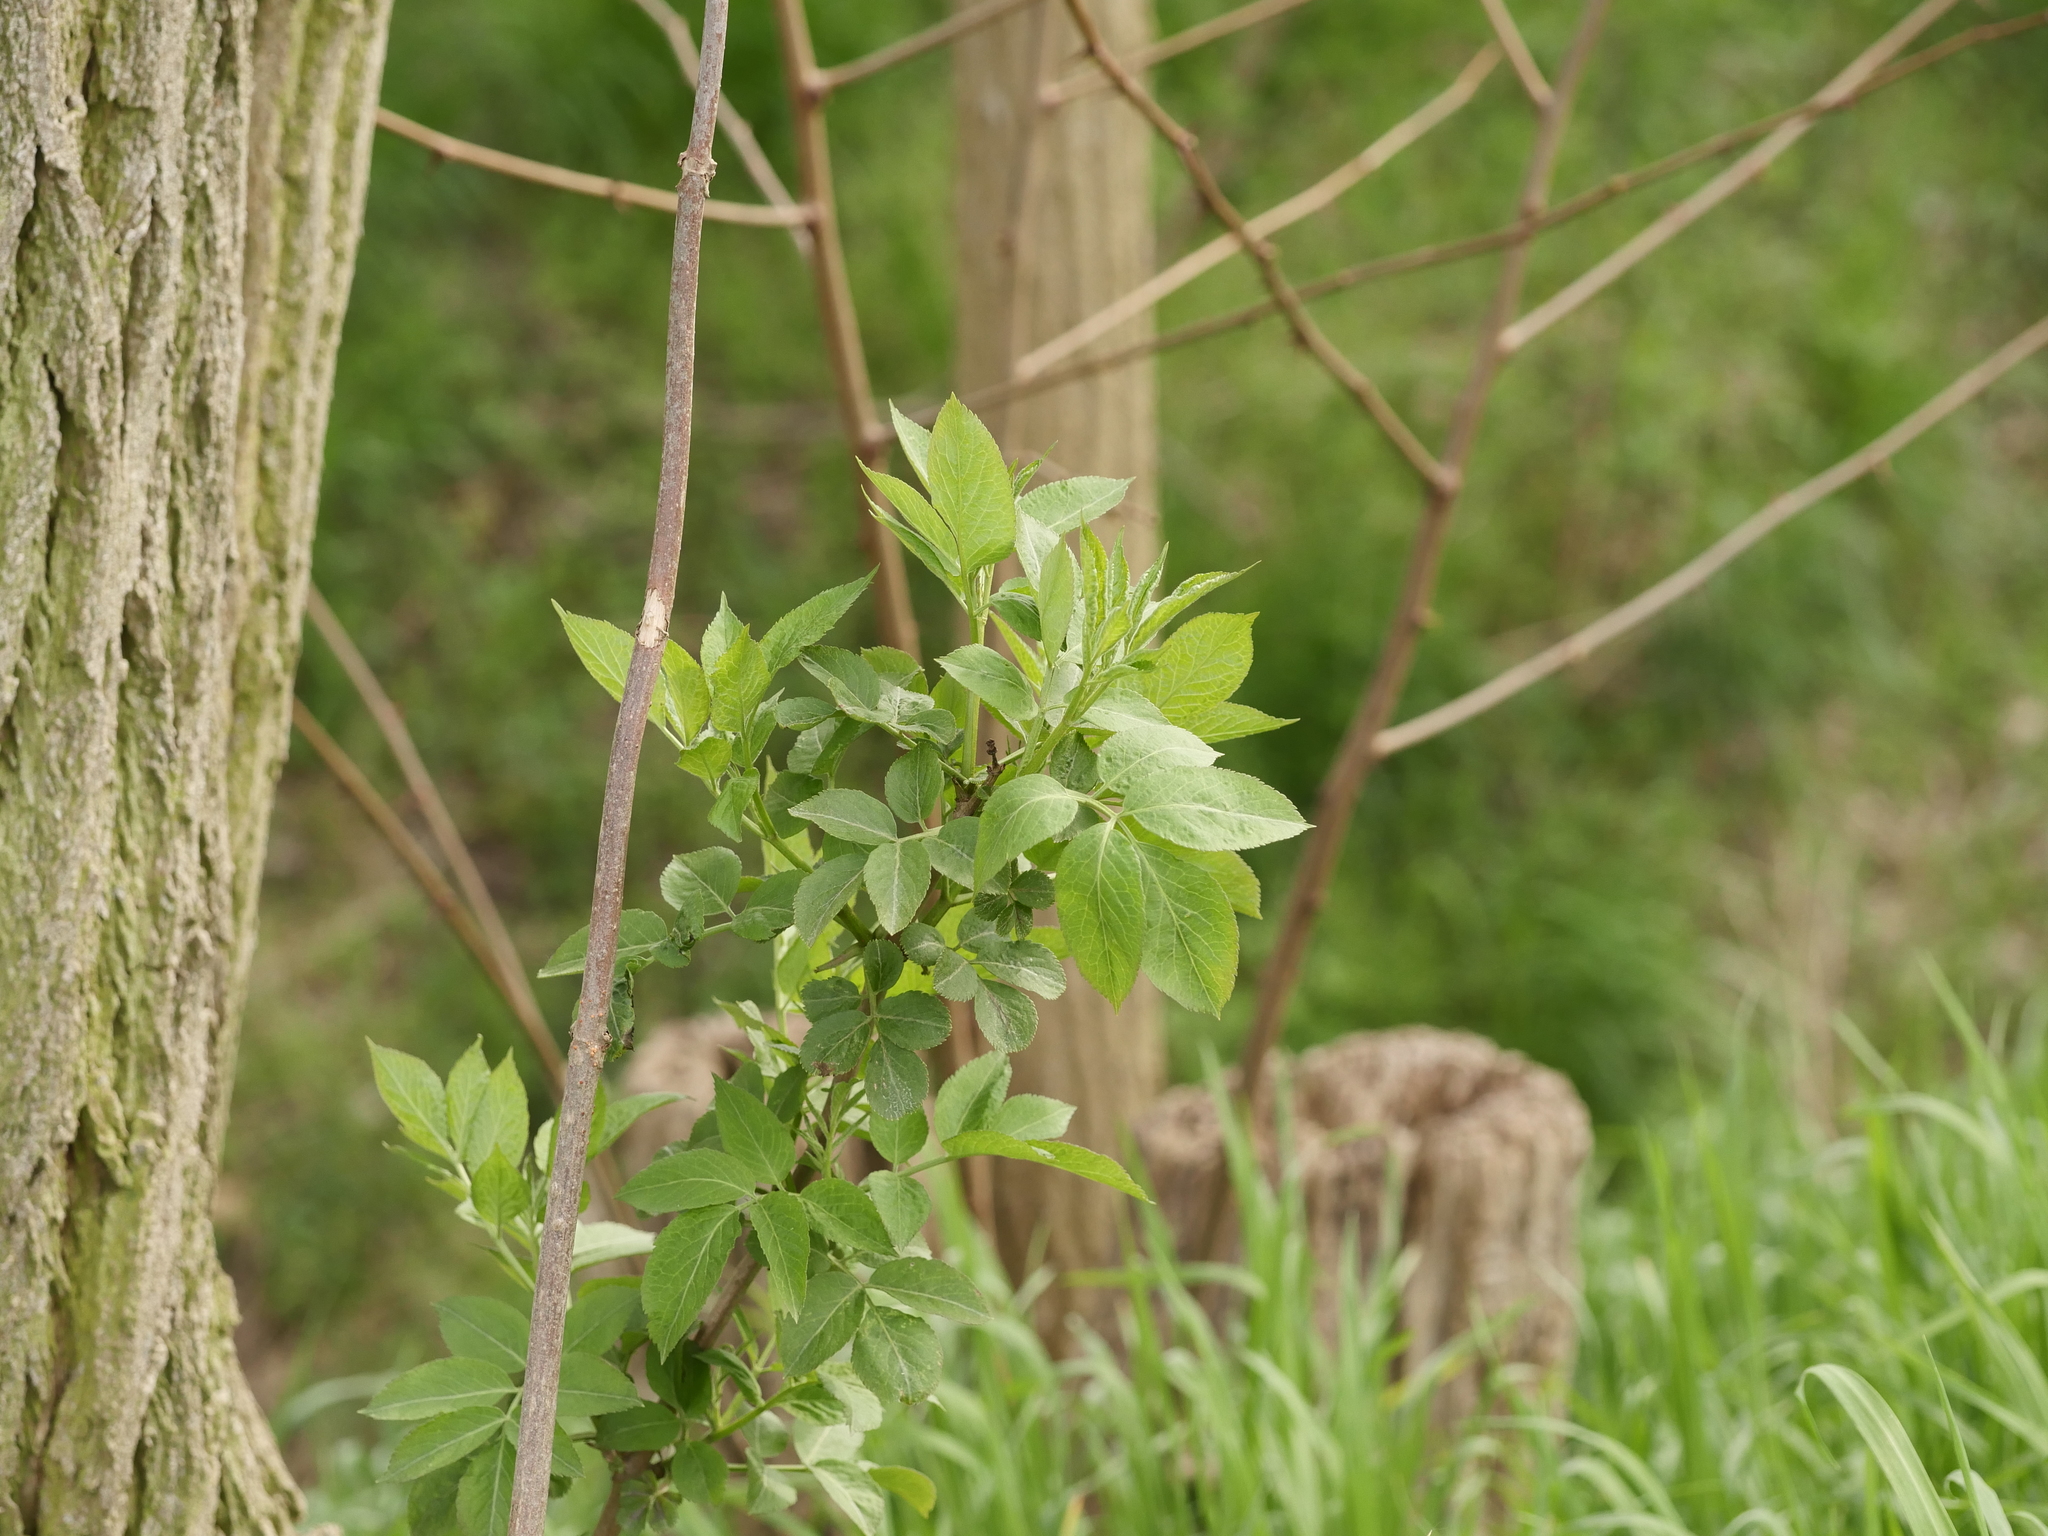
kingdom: Plantae
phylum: Tracheophyta
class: Magnoliopsida
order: Dipsacales
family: Viburnaceae
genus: Sambucus
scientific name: Sambucus nigra
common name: Elder
